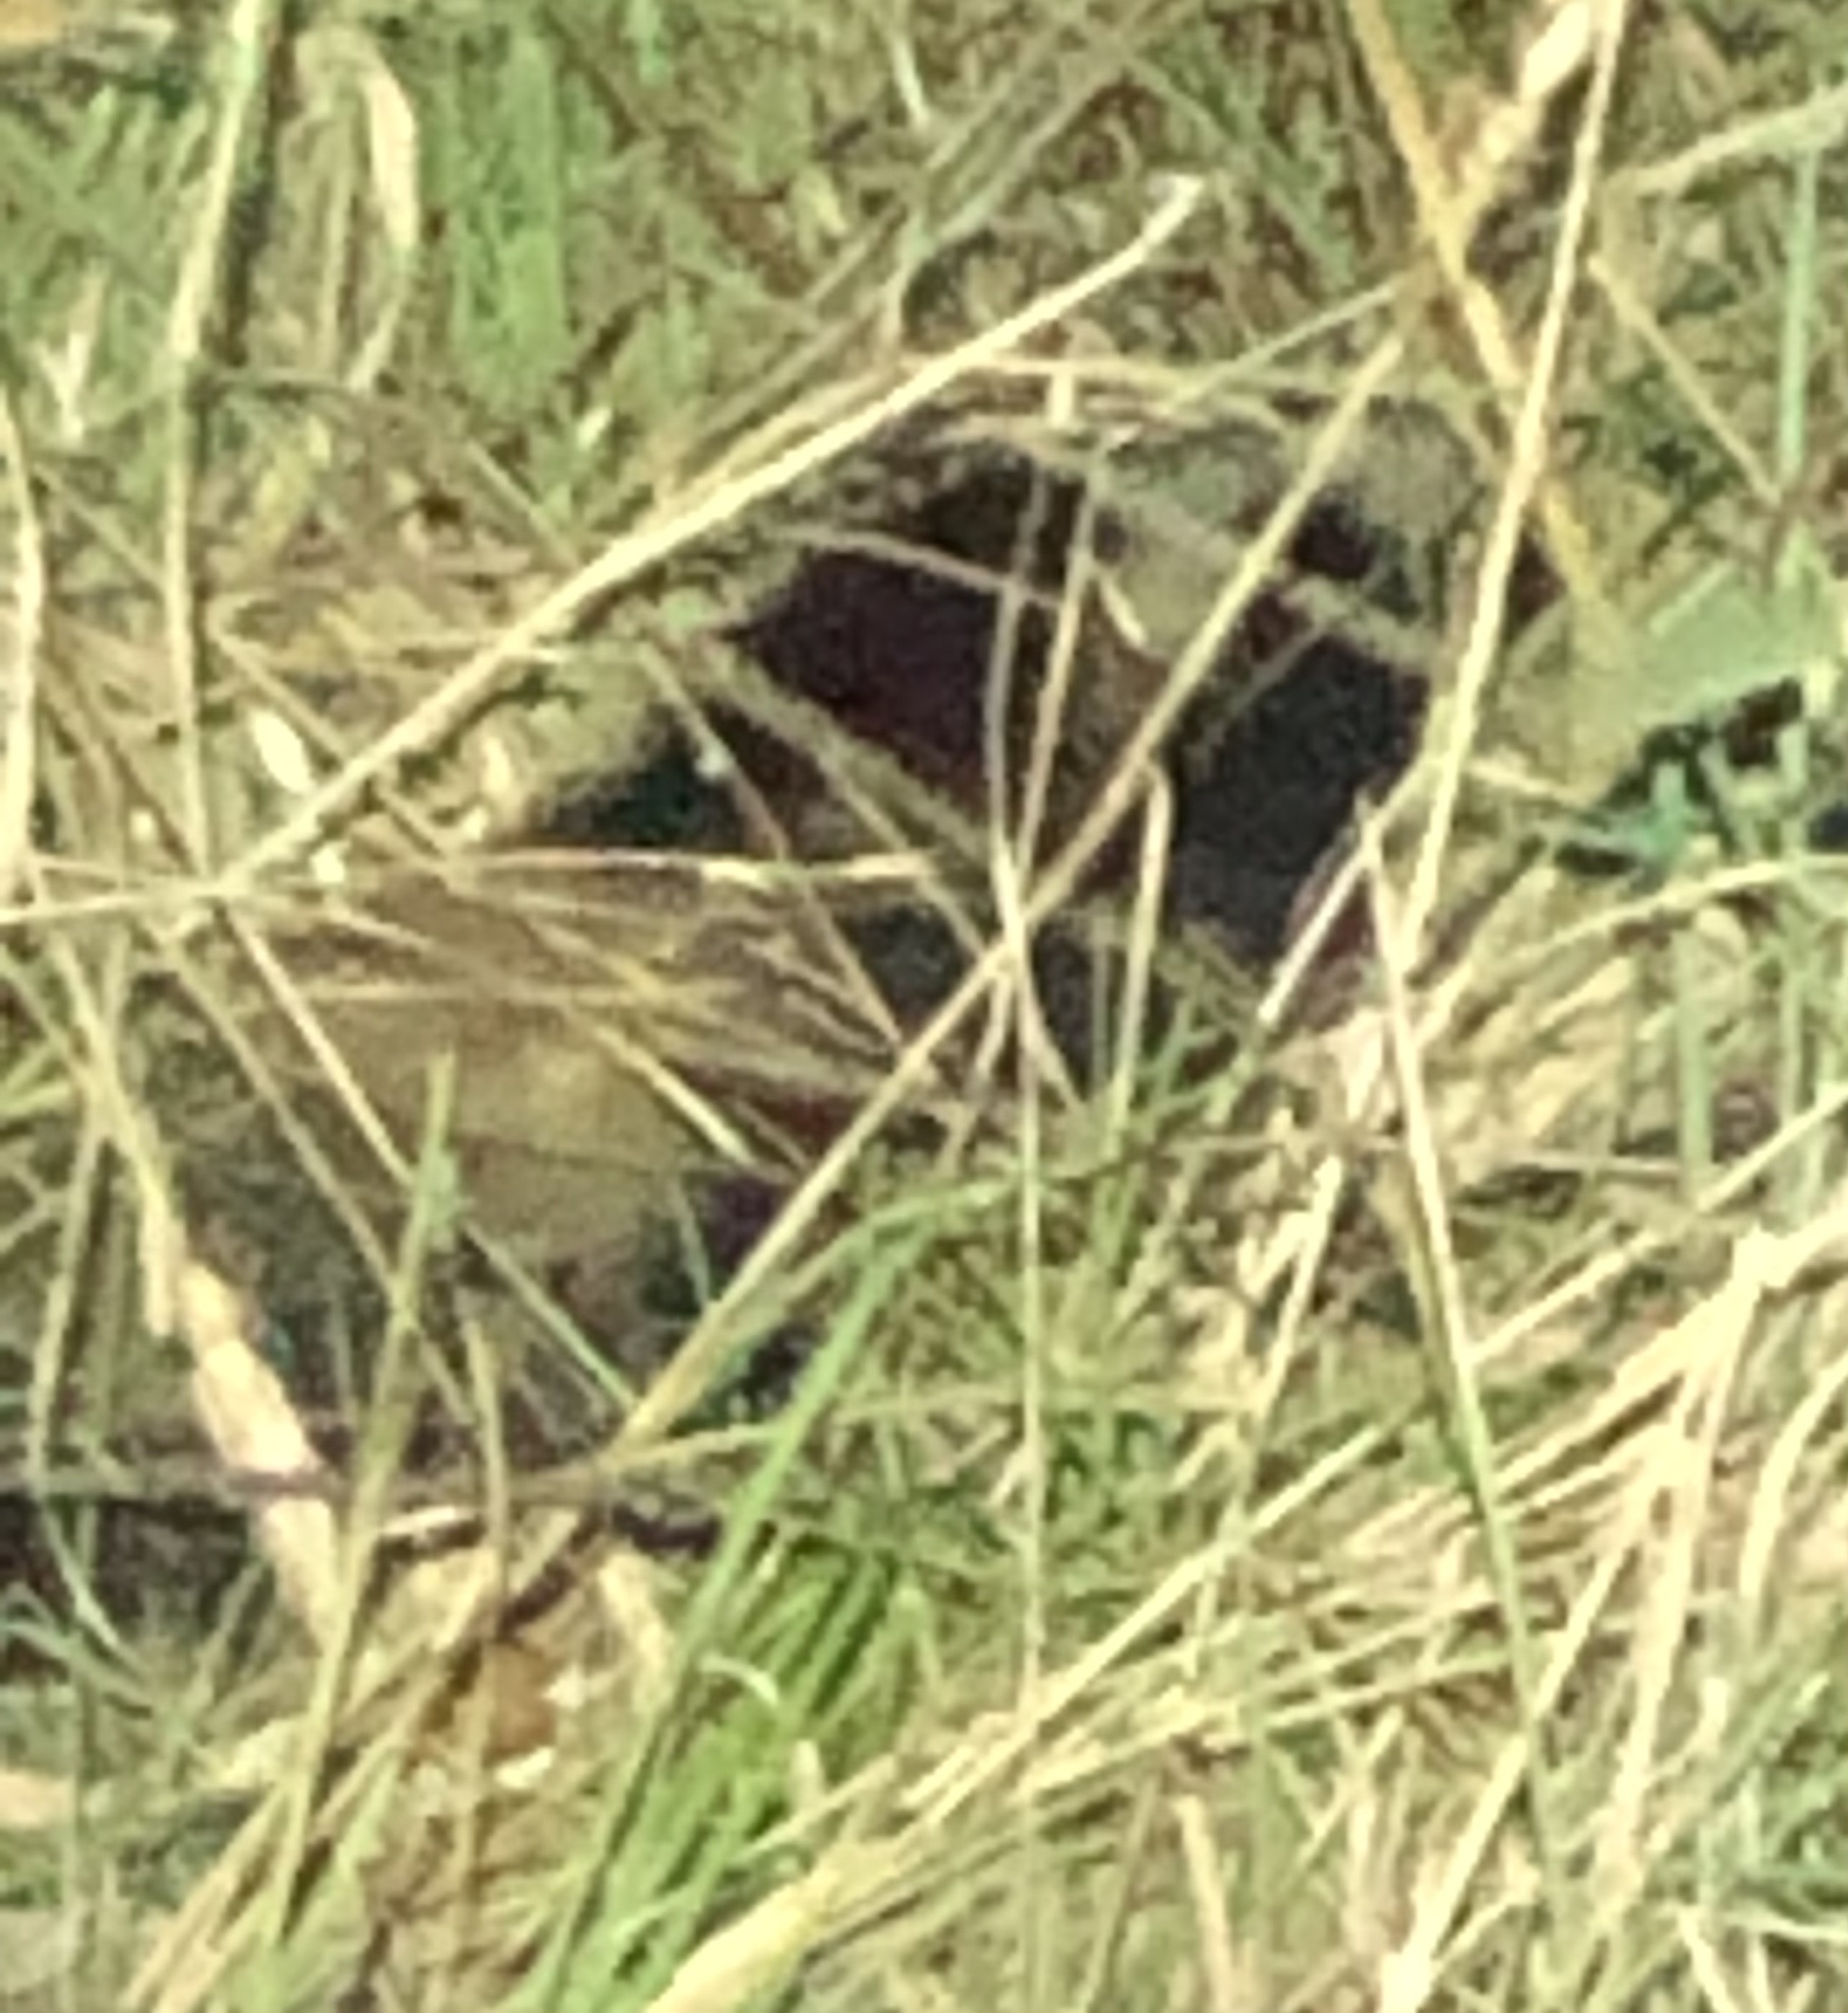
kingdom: Animalia
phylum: Chordata
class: Mammalia
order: Carnivora
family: Mephitidae
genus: Mephitis
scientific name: Mephitis mephitis
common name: Striped skunk
